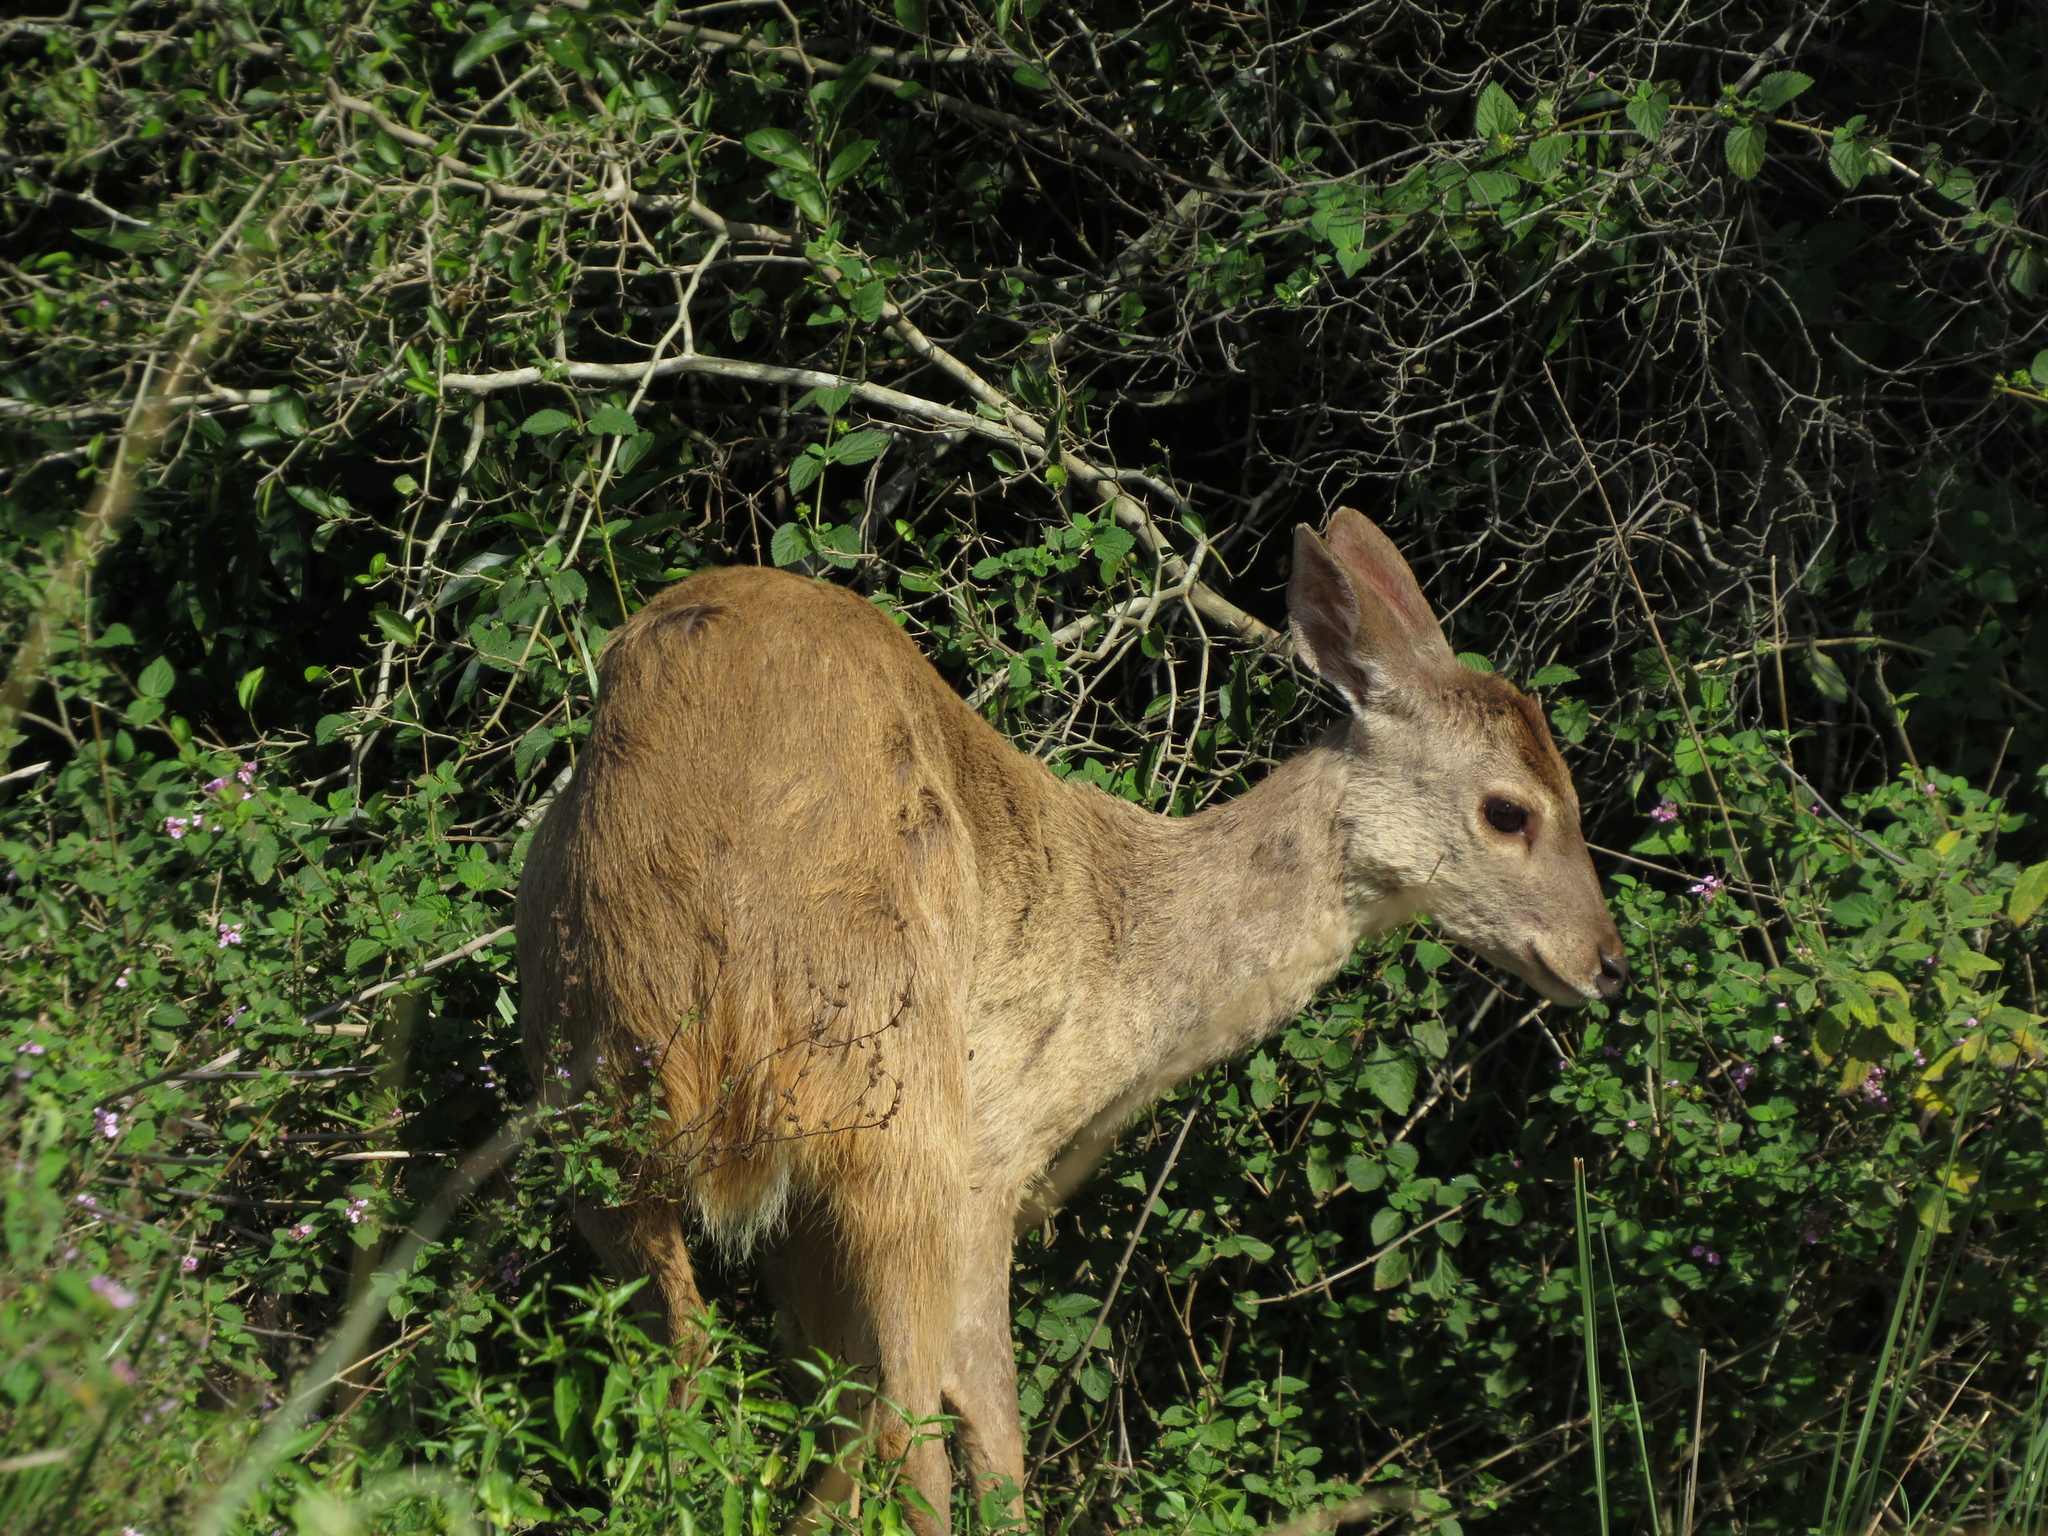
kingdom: Animalia
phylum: Chordata
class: Mammalia
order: Artiodactyla
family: Cervidae
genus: Mazama
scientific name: Mazama gouazoubira
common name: Gray brocket
